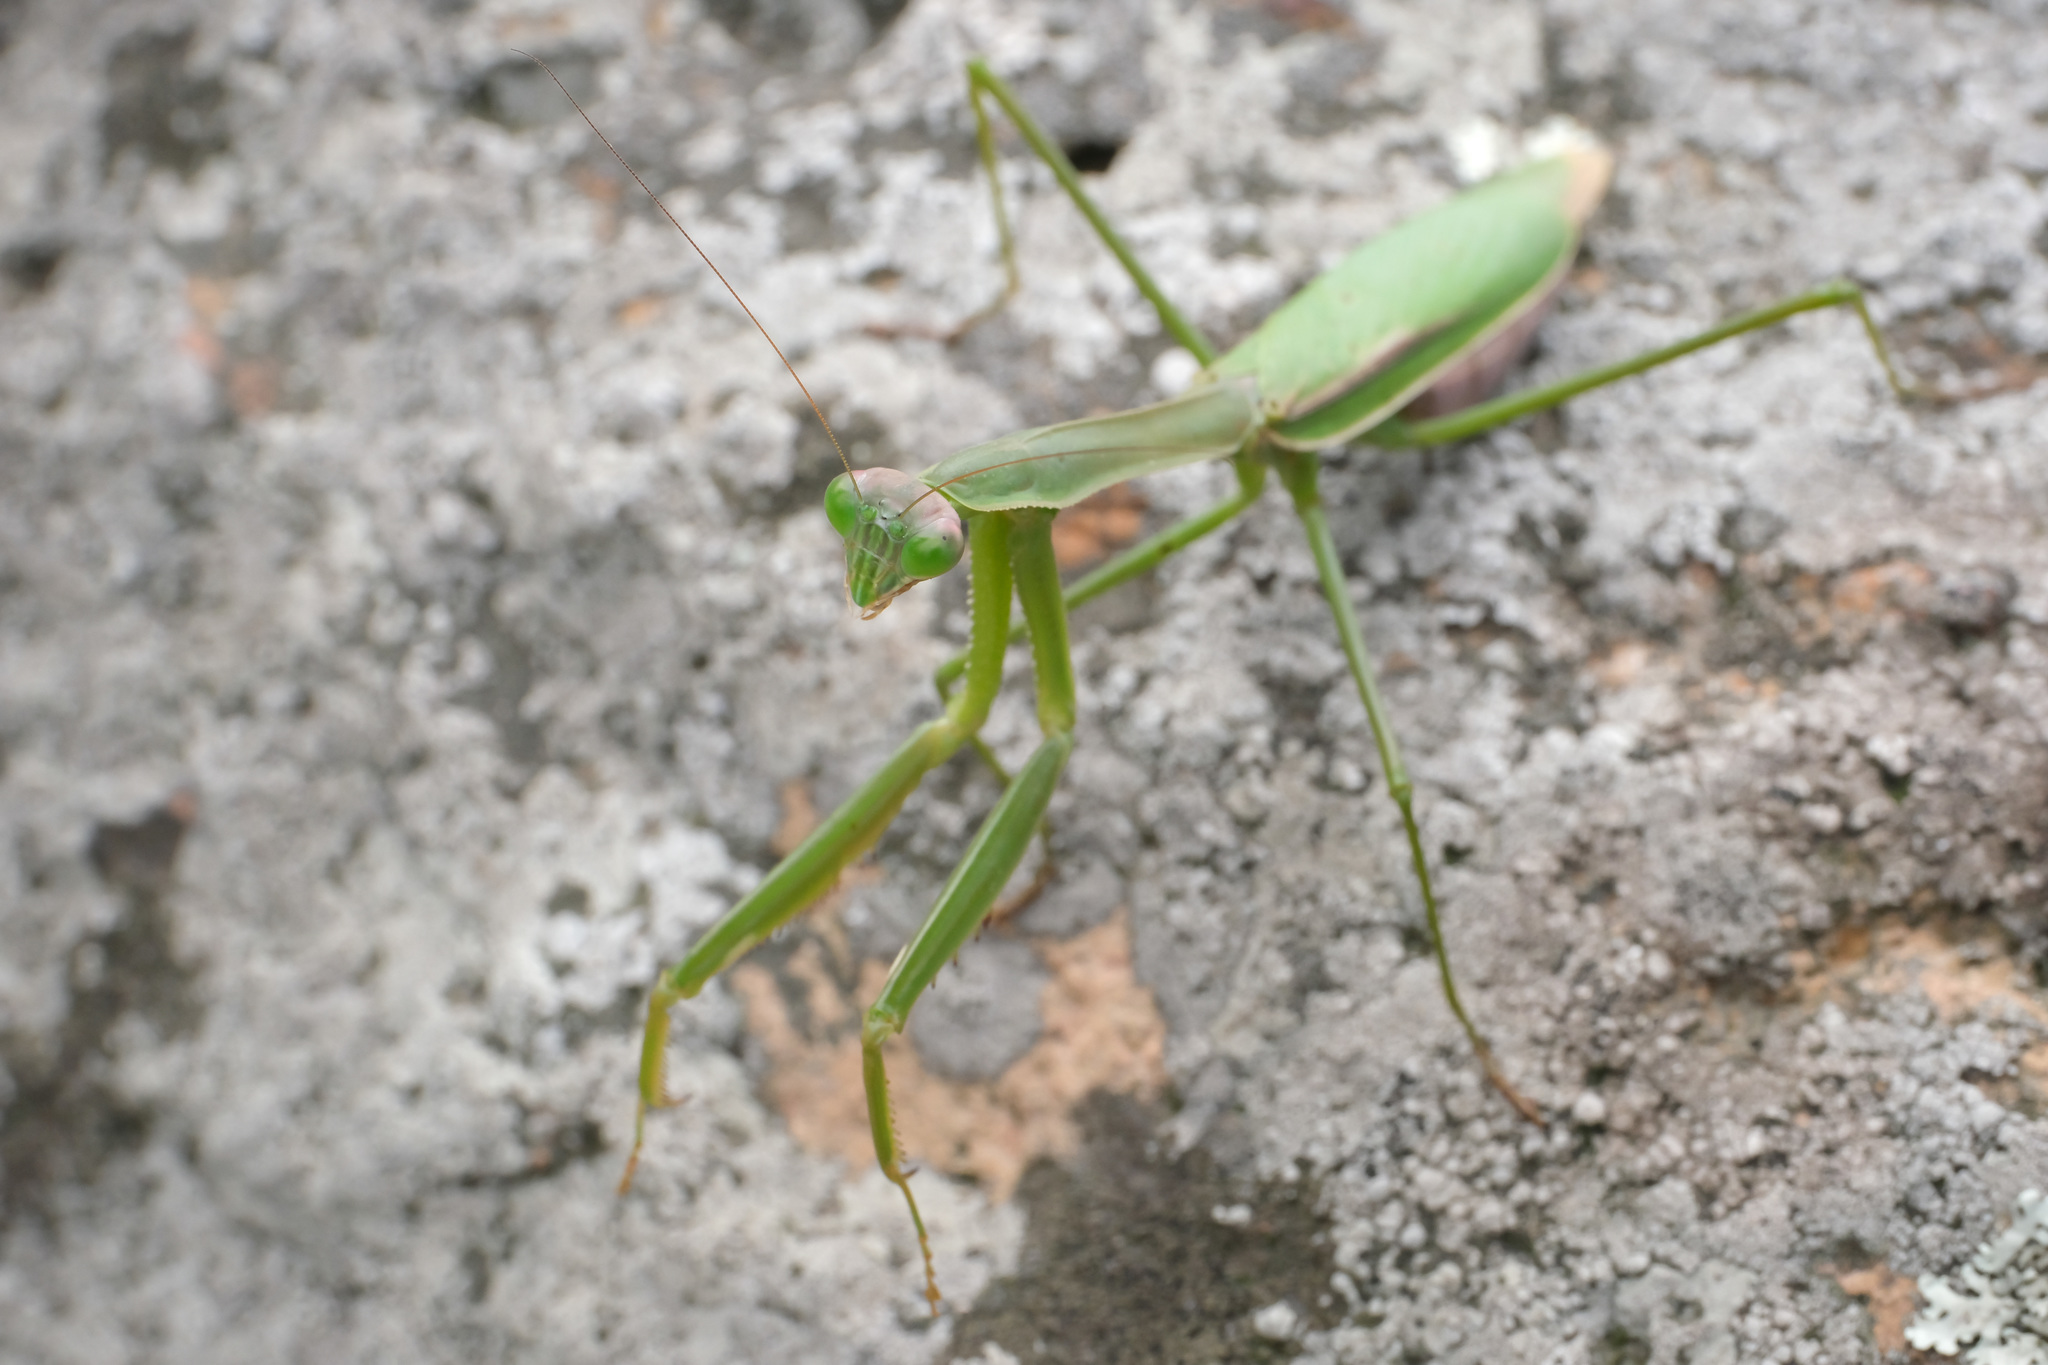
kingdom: Animalia
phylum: Arthropoda
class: Insecta
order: Mantodea
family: Mantidae
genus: Tenodera
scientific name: Tenodera angustipennis
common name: Asian mantis
